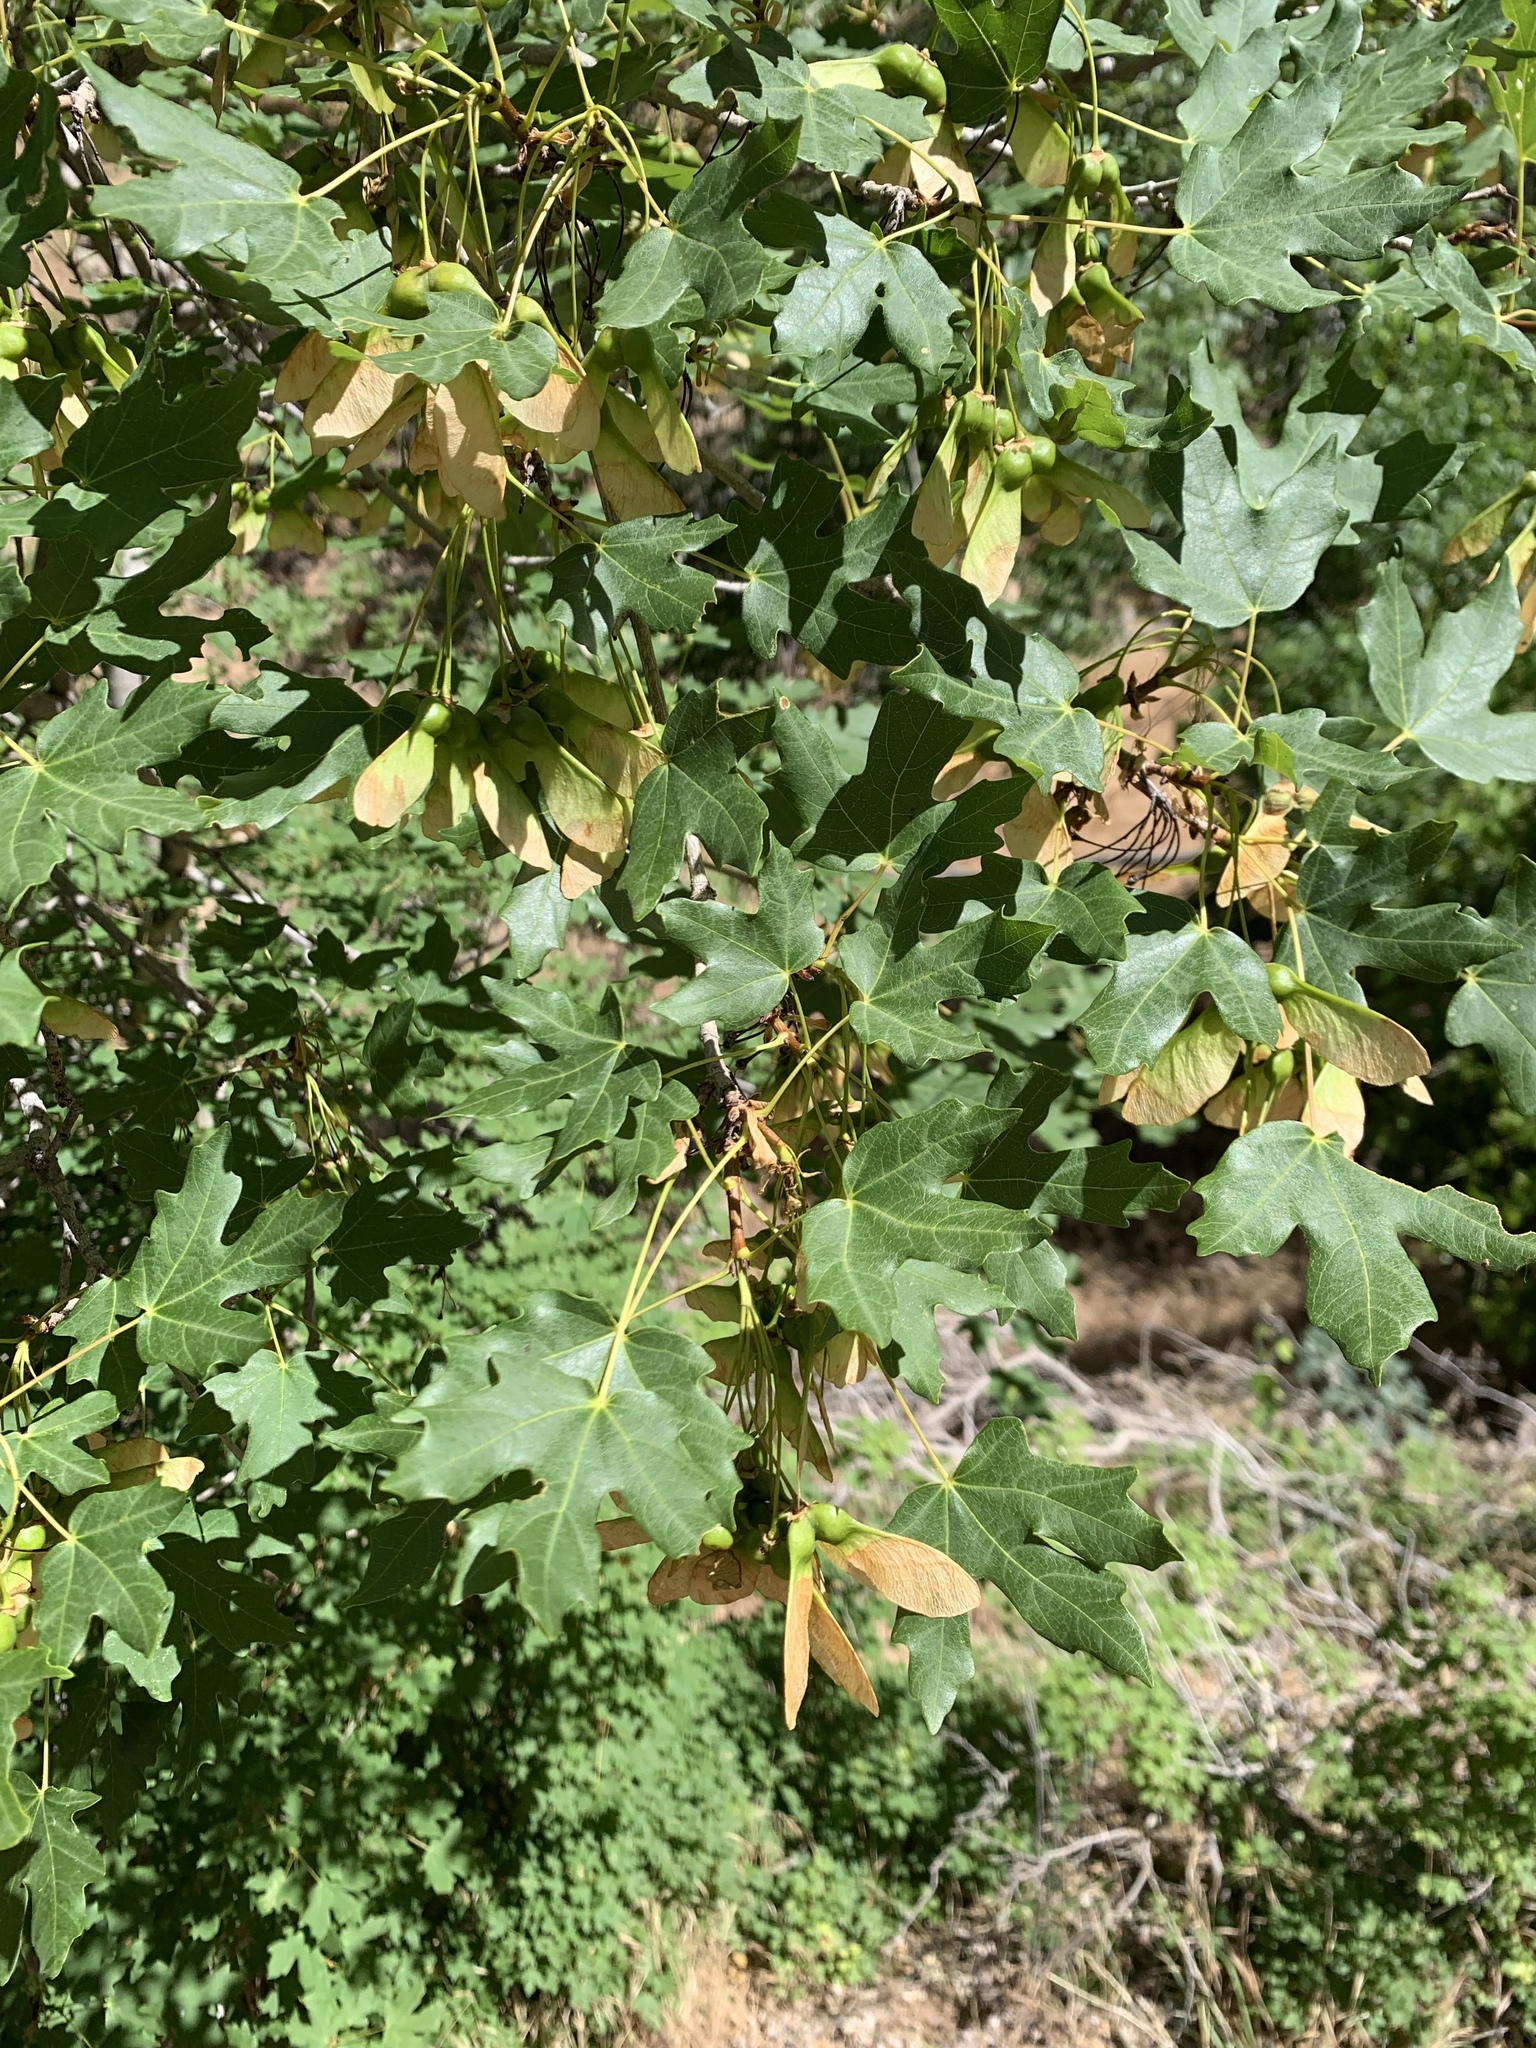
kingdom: Plantae
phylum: Tracheophyta
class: Magnoliopsida
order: Sapindales
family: Sapindaceae
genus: Acer
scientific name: Acer grandidentatum
